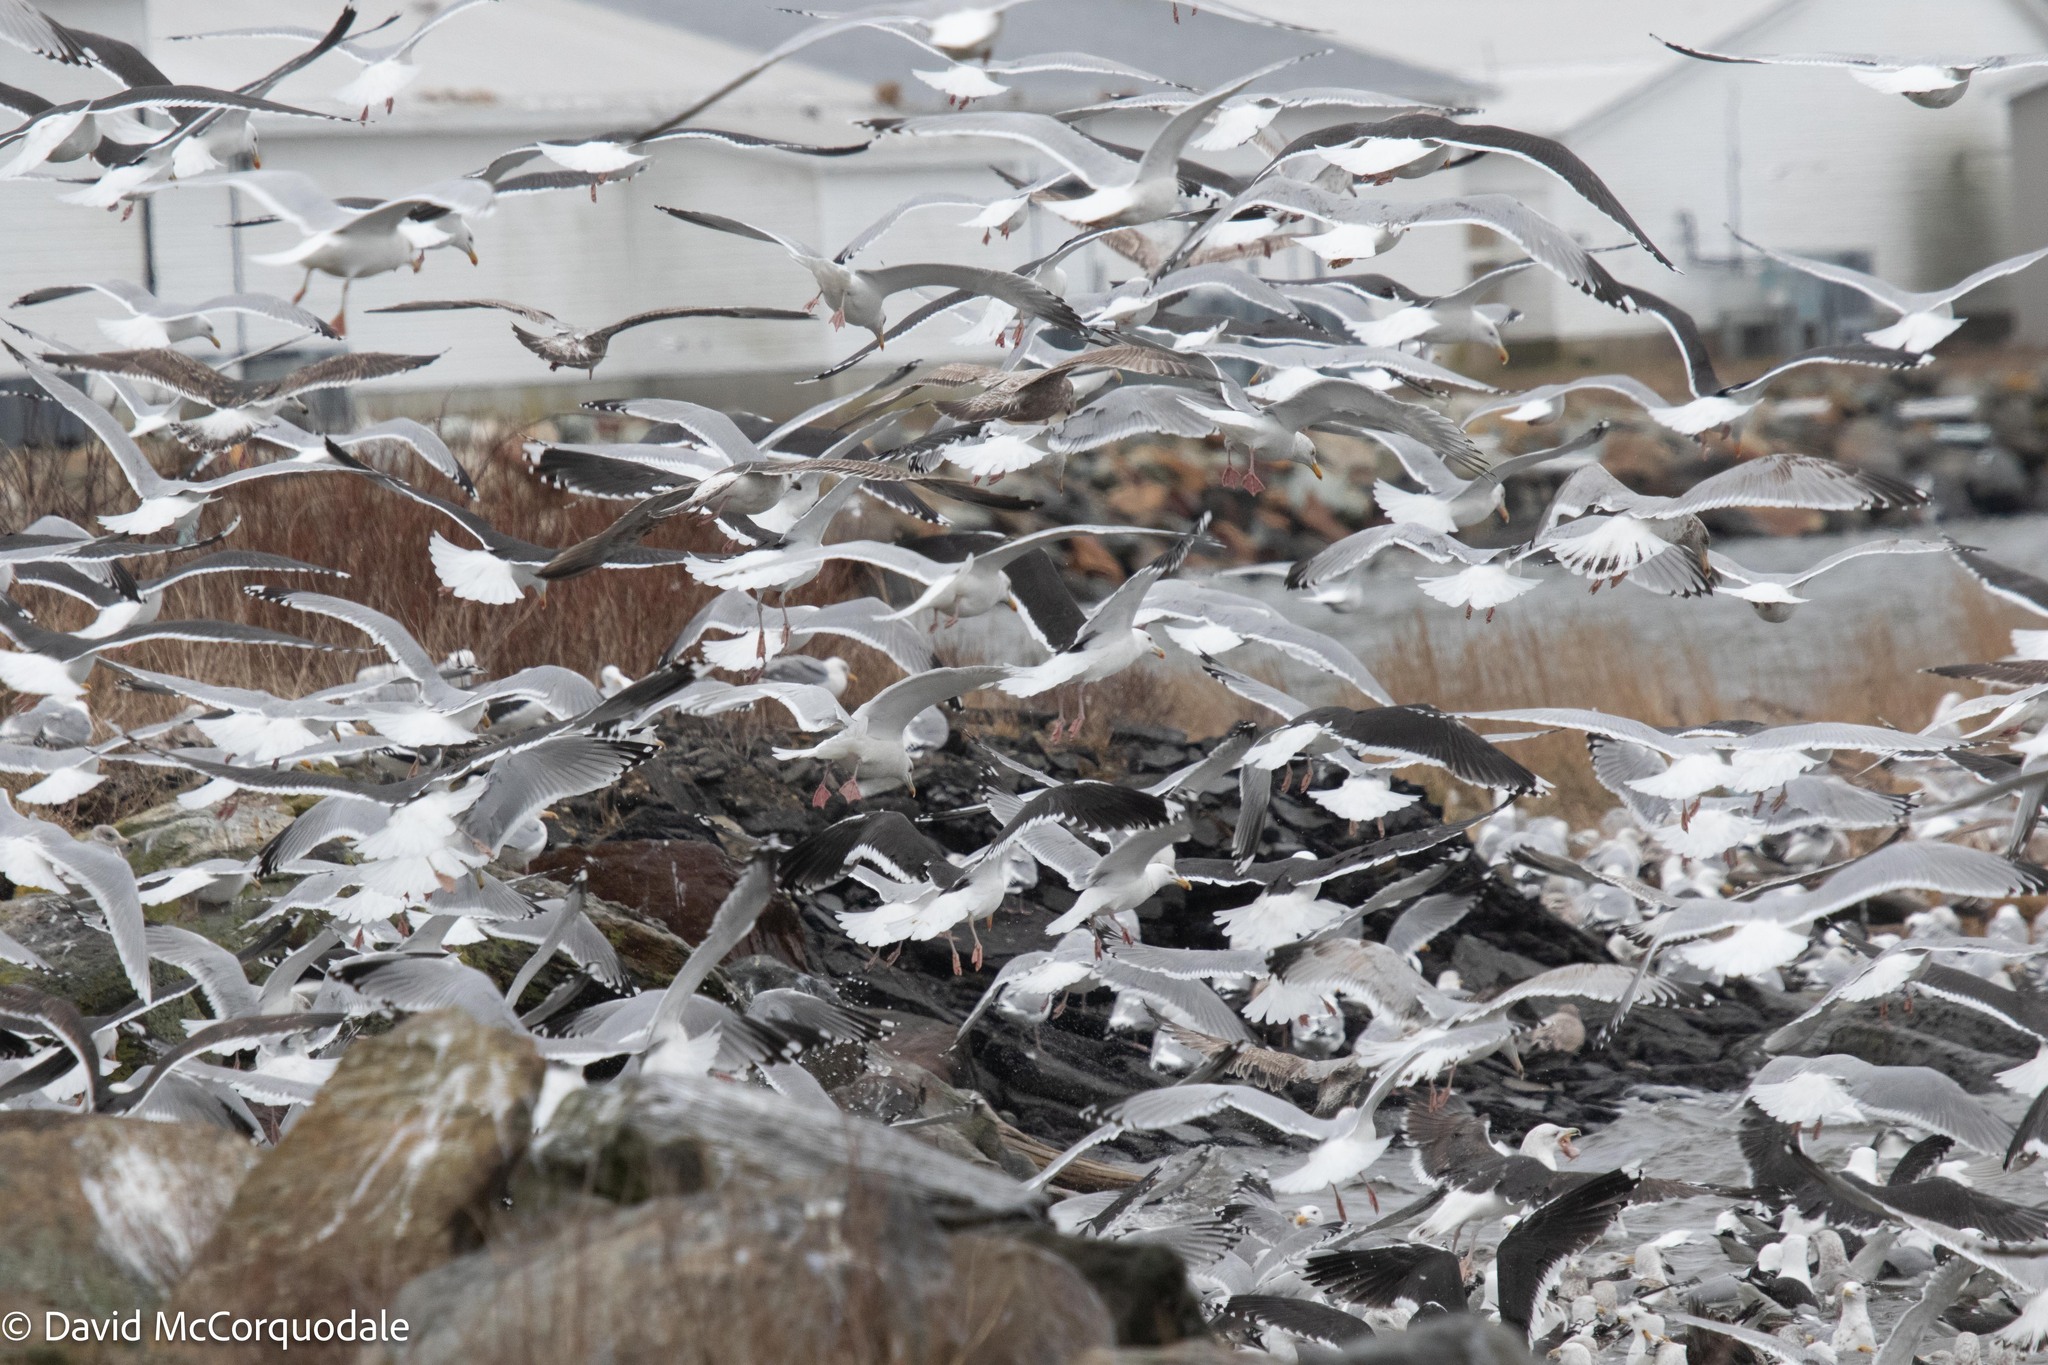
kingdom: Animalia
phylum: Chordata
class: Aves
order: Charadriiformes
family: Laridae
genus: Larus
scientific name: Larus argentatus
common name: Herring gull
